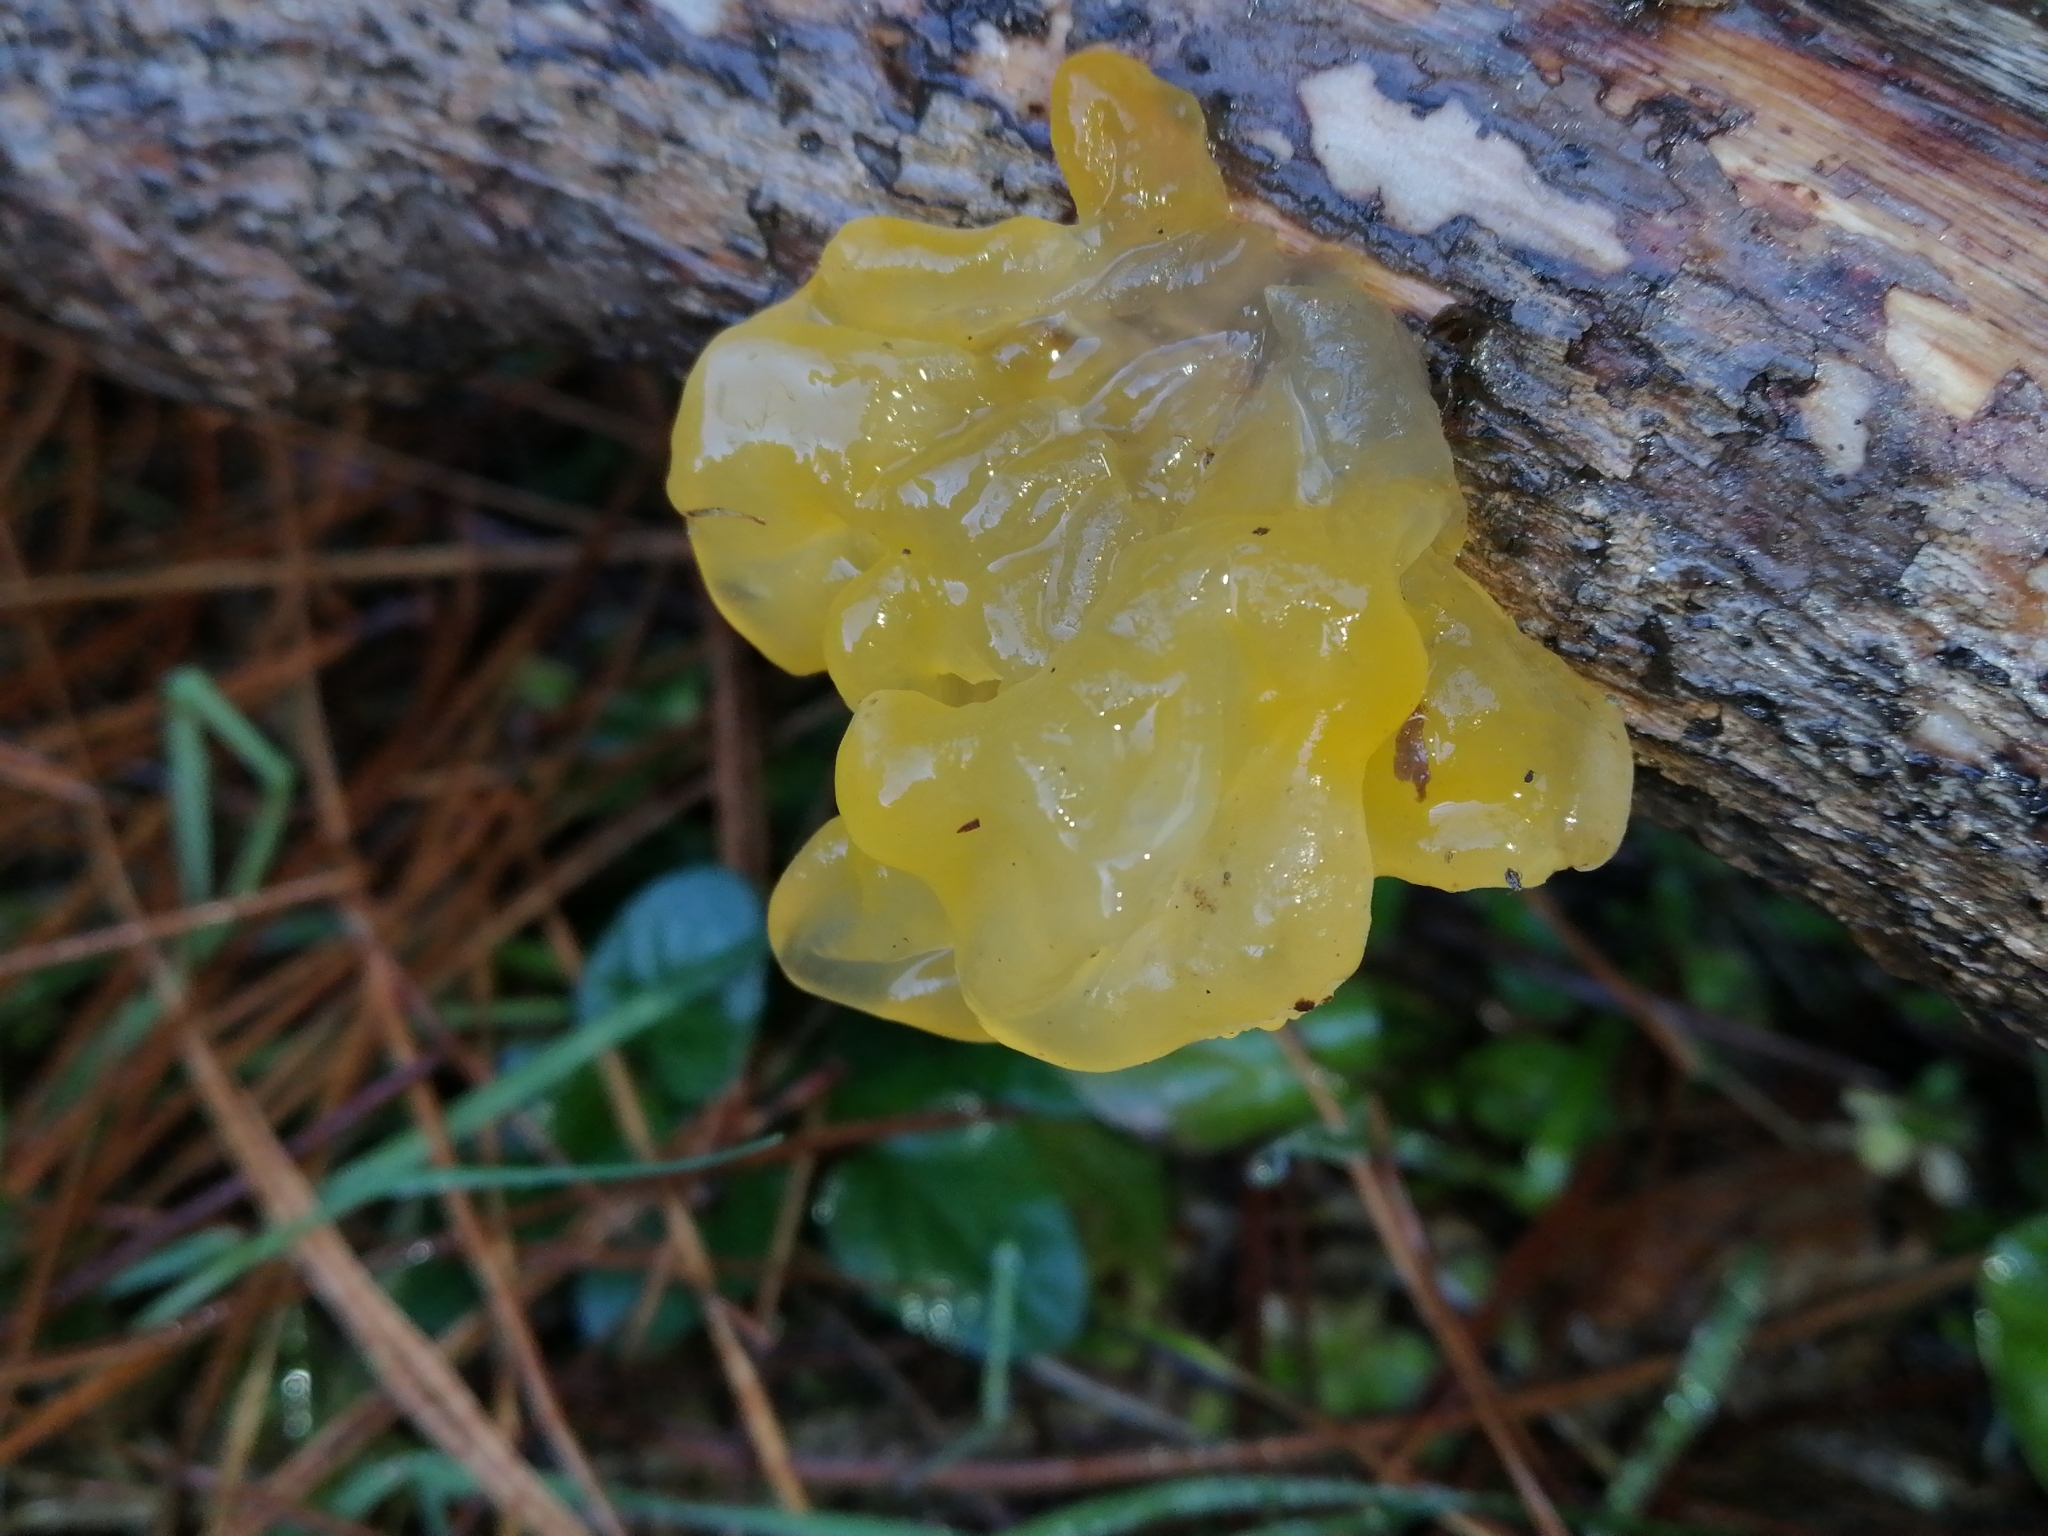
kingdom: Fungi
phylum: Basidiomycota
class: Tremellomycetes
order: Tremellales
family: Tremellaceae
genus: Tremella
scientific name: Tremella mesenterica
